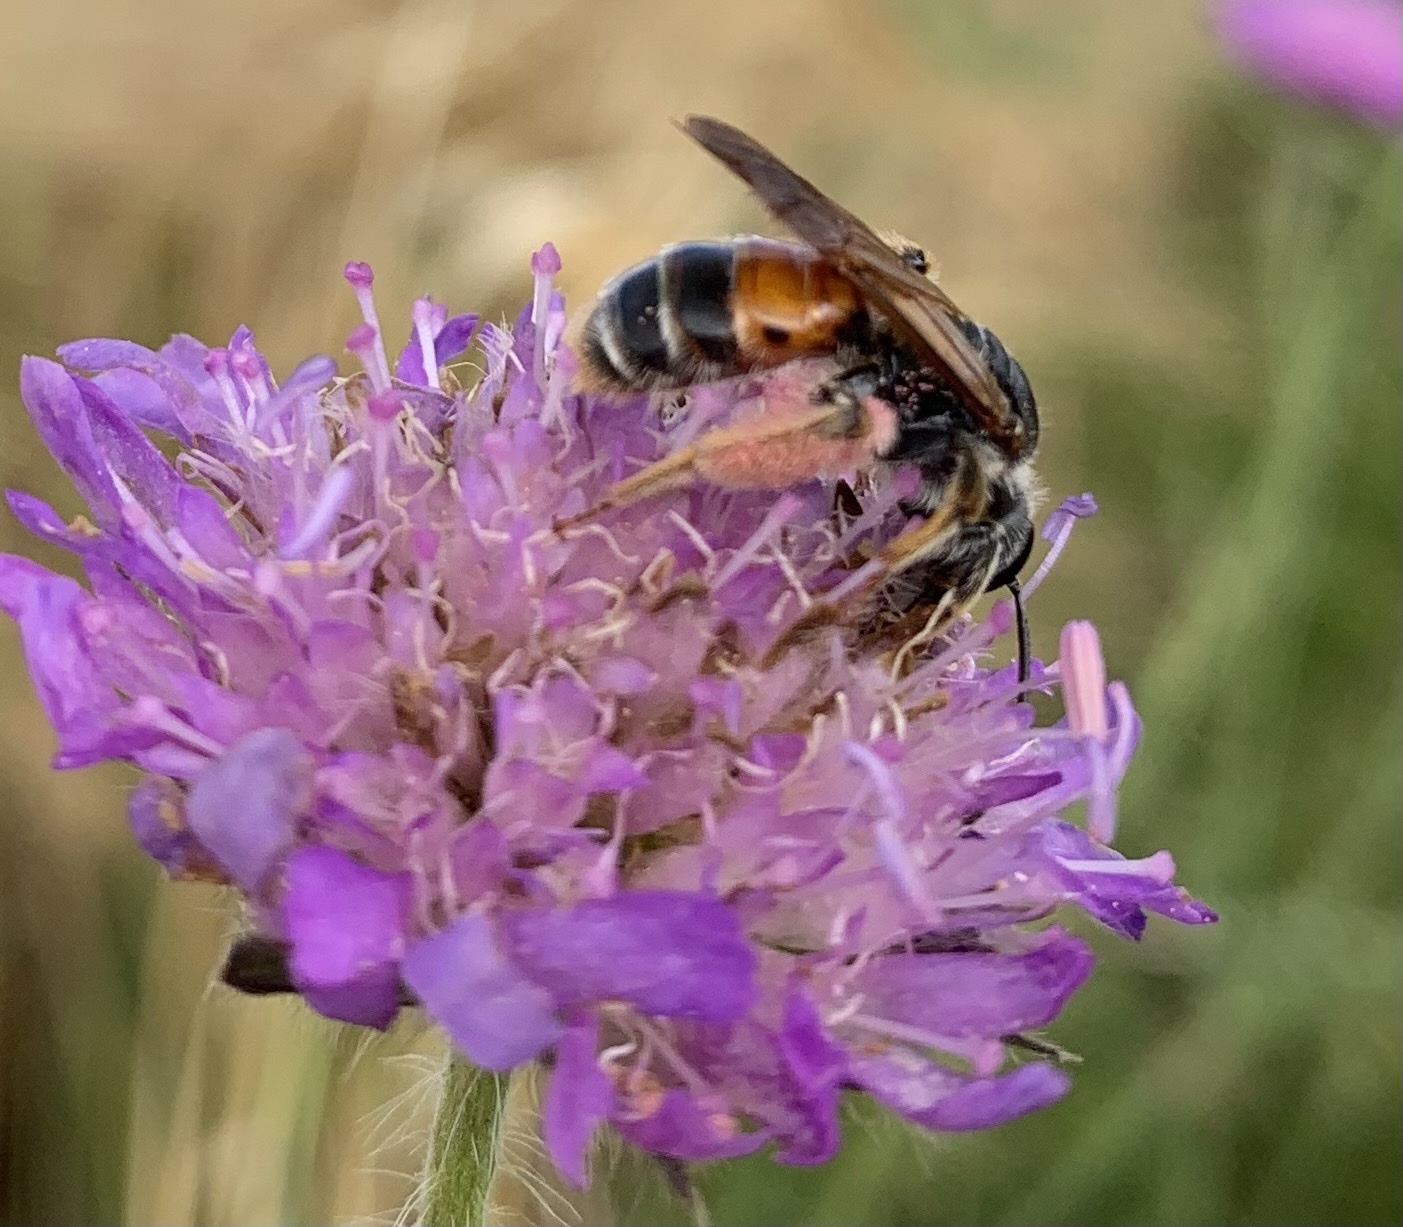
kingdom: Animalia
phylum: Arthropoda
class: Insecta
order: Hymenoptera
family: Andrenidae
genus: Andrena
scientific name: Andrena hattorfiana
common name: Large scabious mining bee
